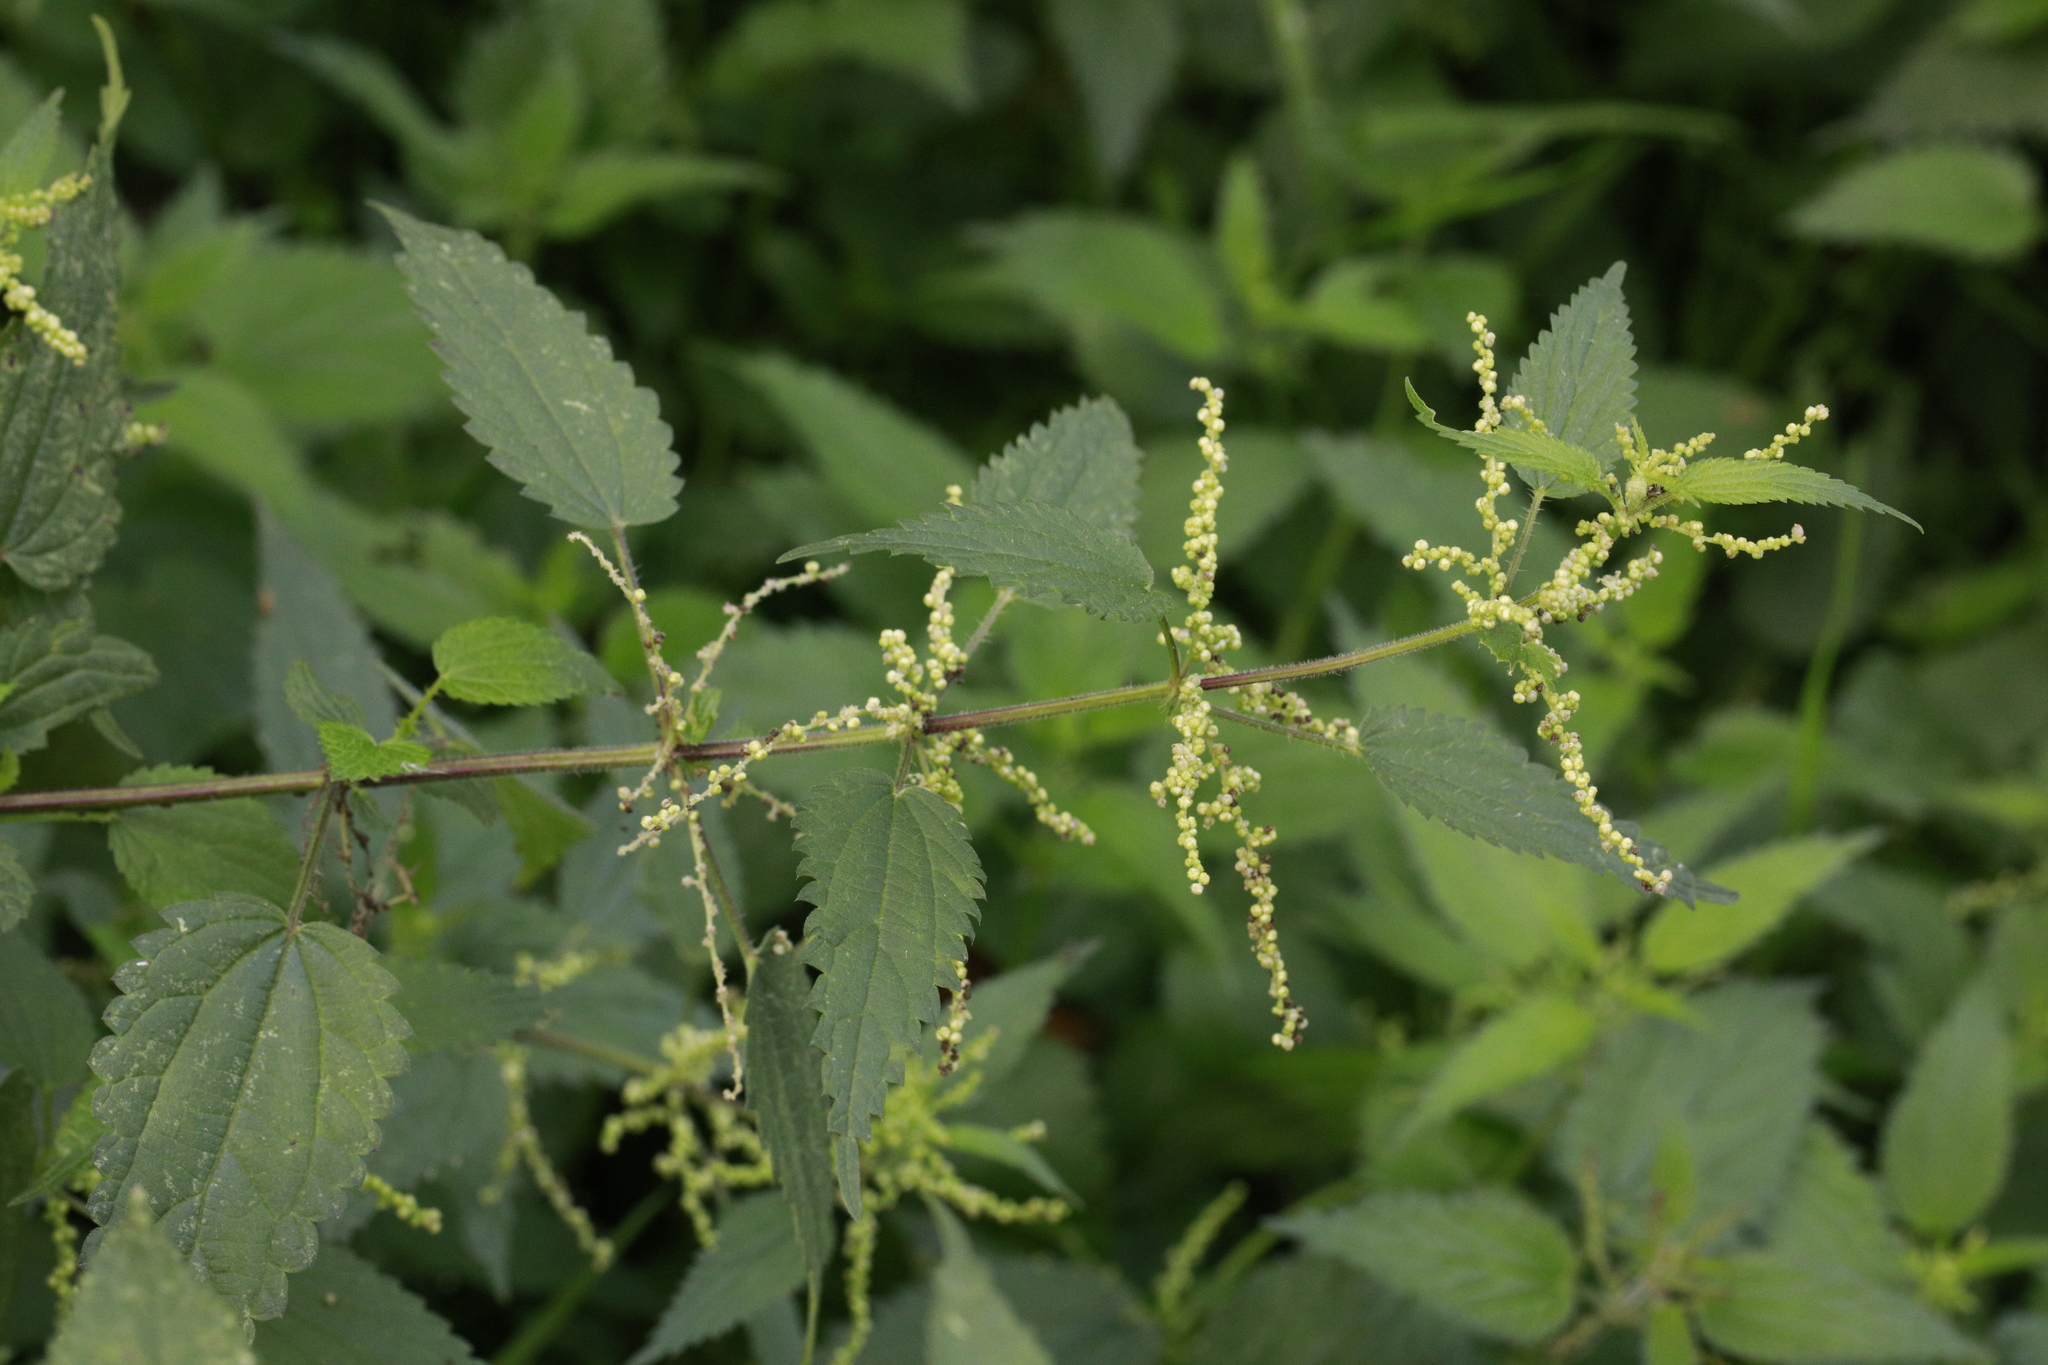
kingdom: Plantae
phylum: Tracheophyta
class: Magnoliopsida
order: Rosales
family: Urticaceae
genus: Urtica
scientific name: Urtica dioica
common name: Common nettle
